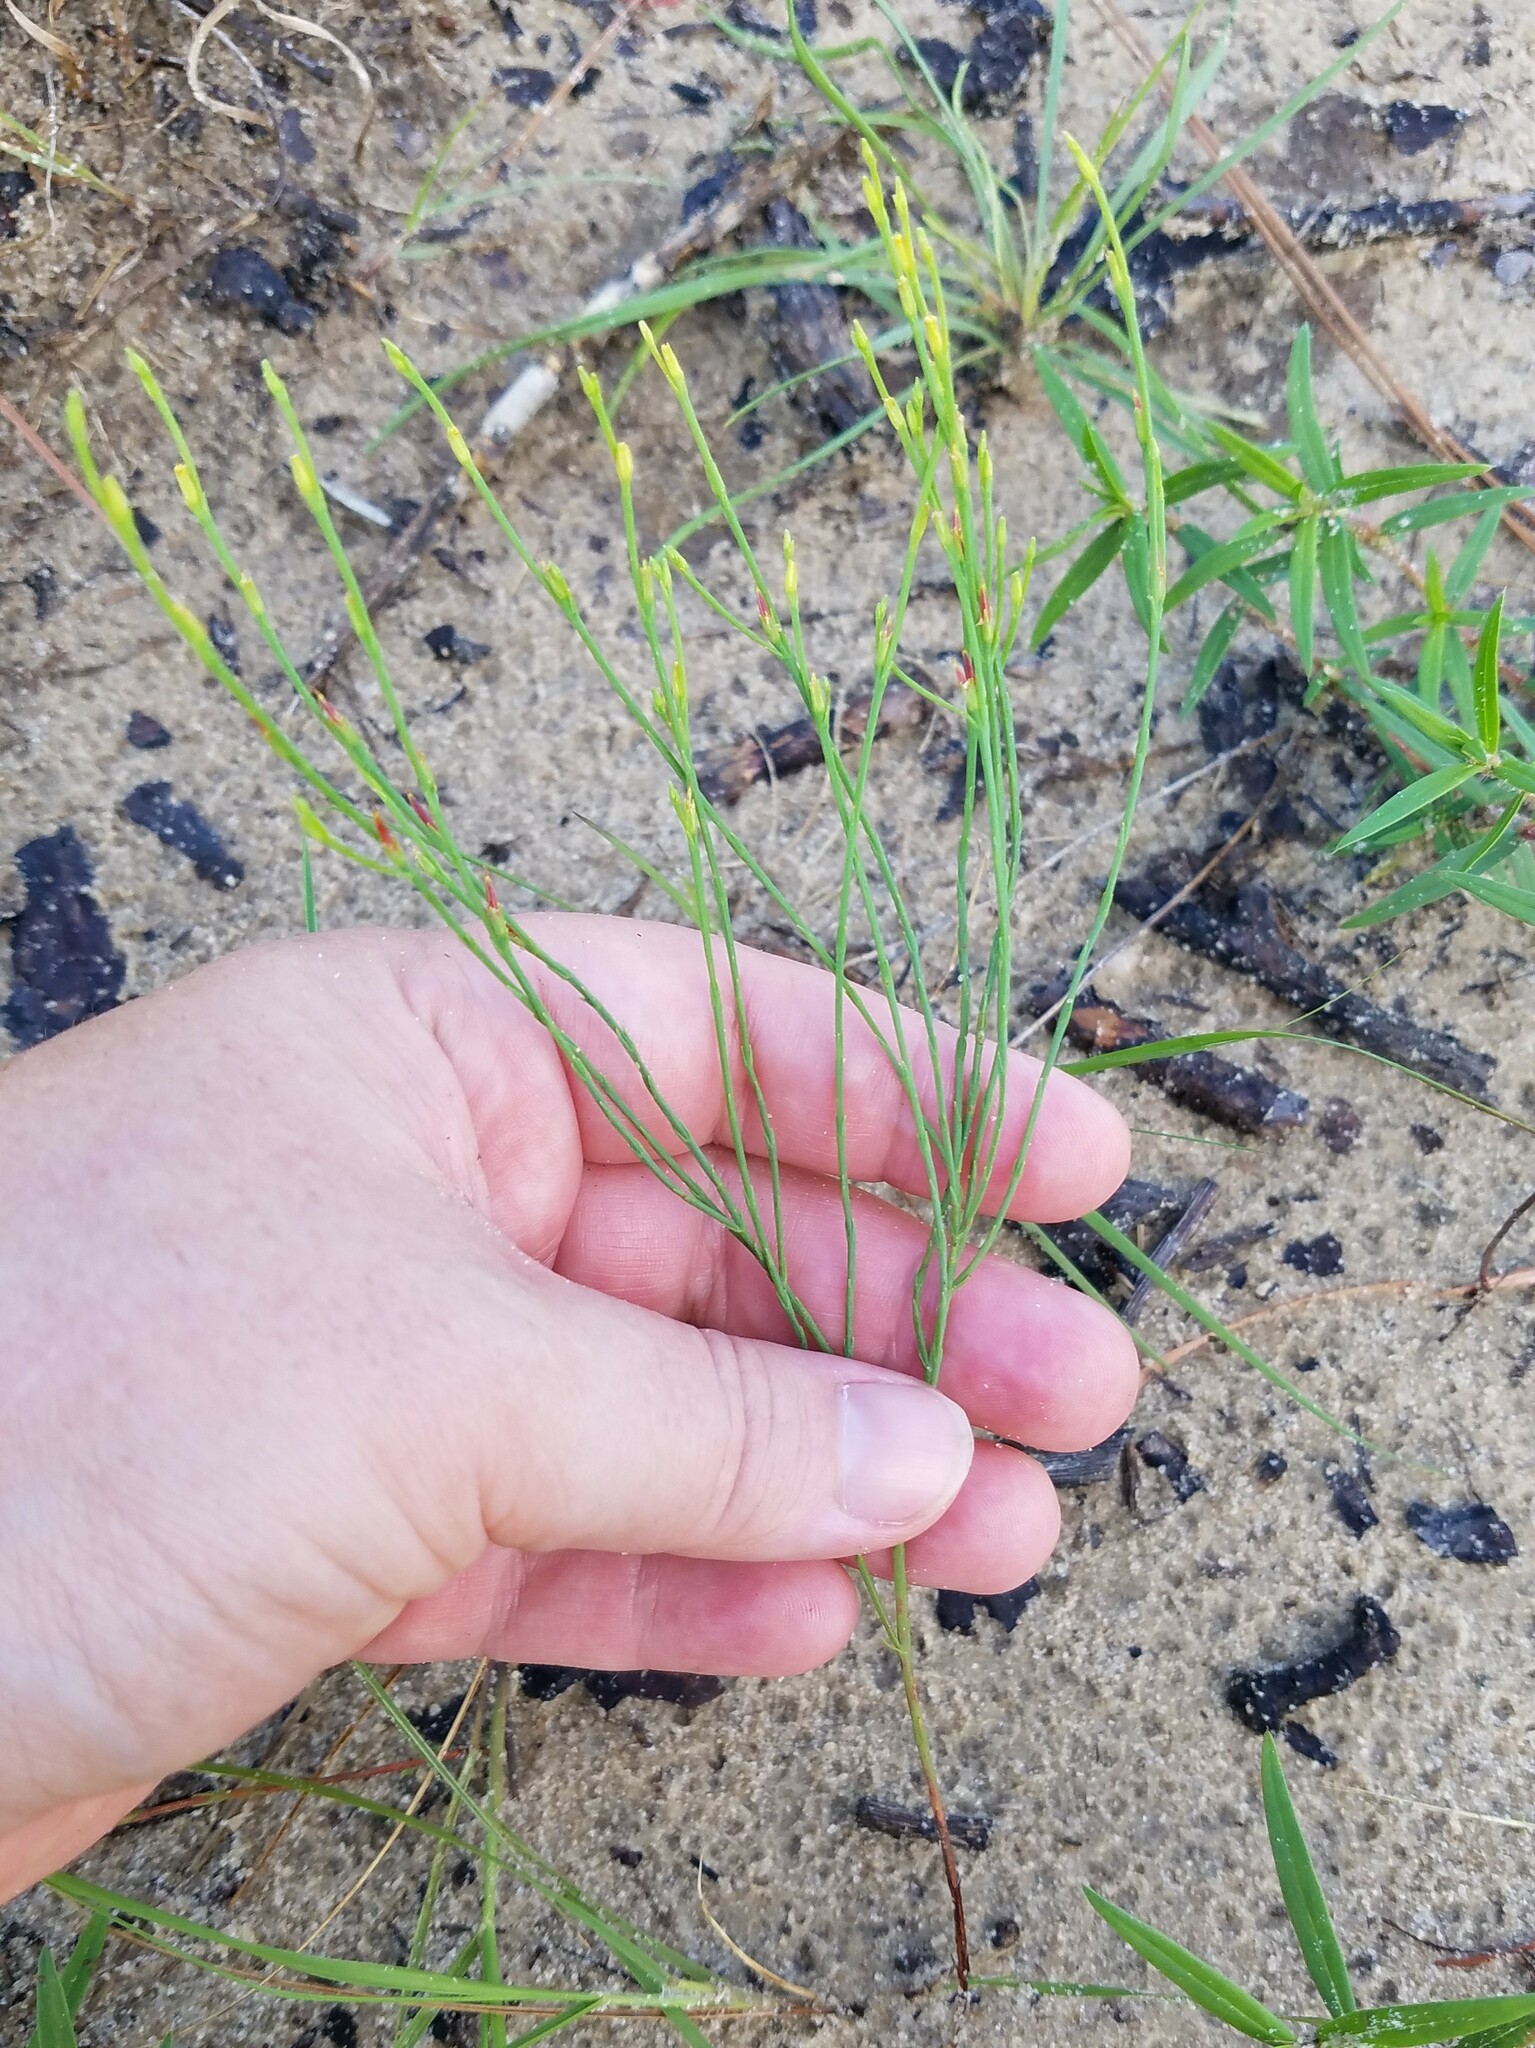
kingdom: Plantae
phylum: Tracheophyta
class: Magnoliopsida
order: Malpighiales
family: Hypericaceae
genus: Hypericum
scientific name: Hypericum gentianoides
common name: Gentian-leaved st. john's-wort
